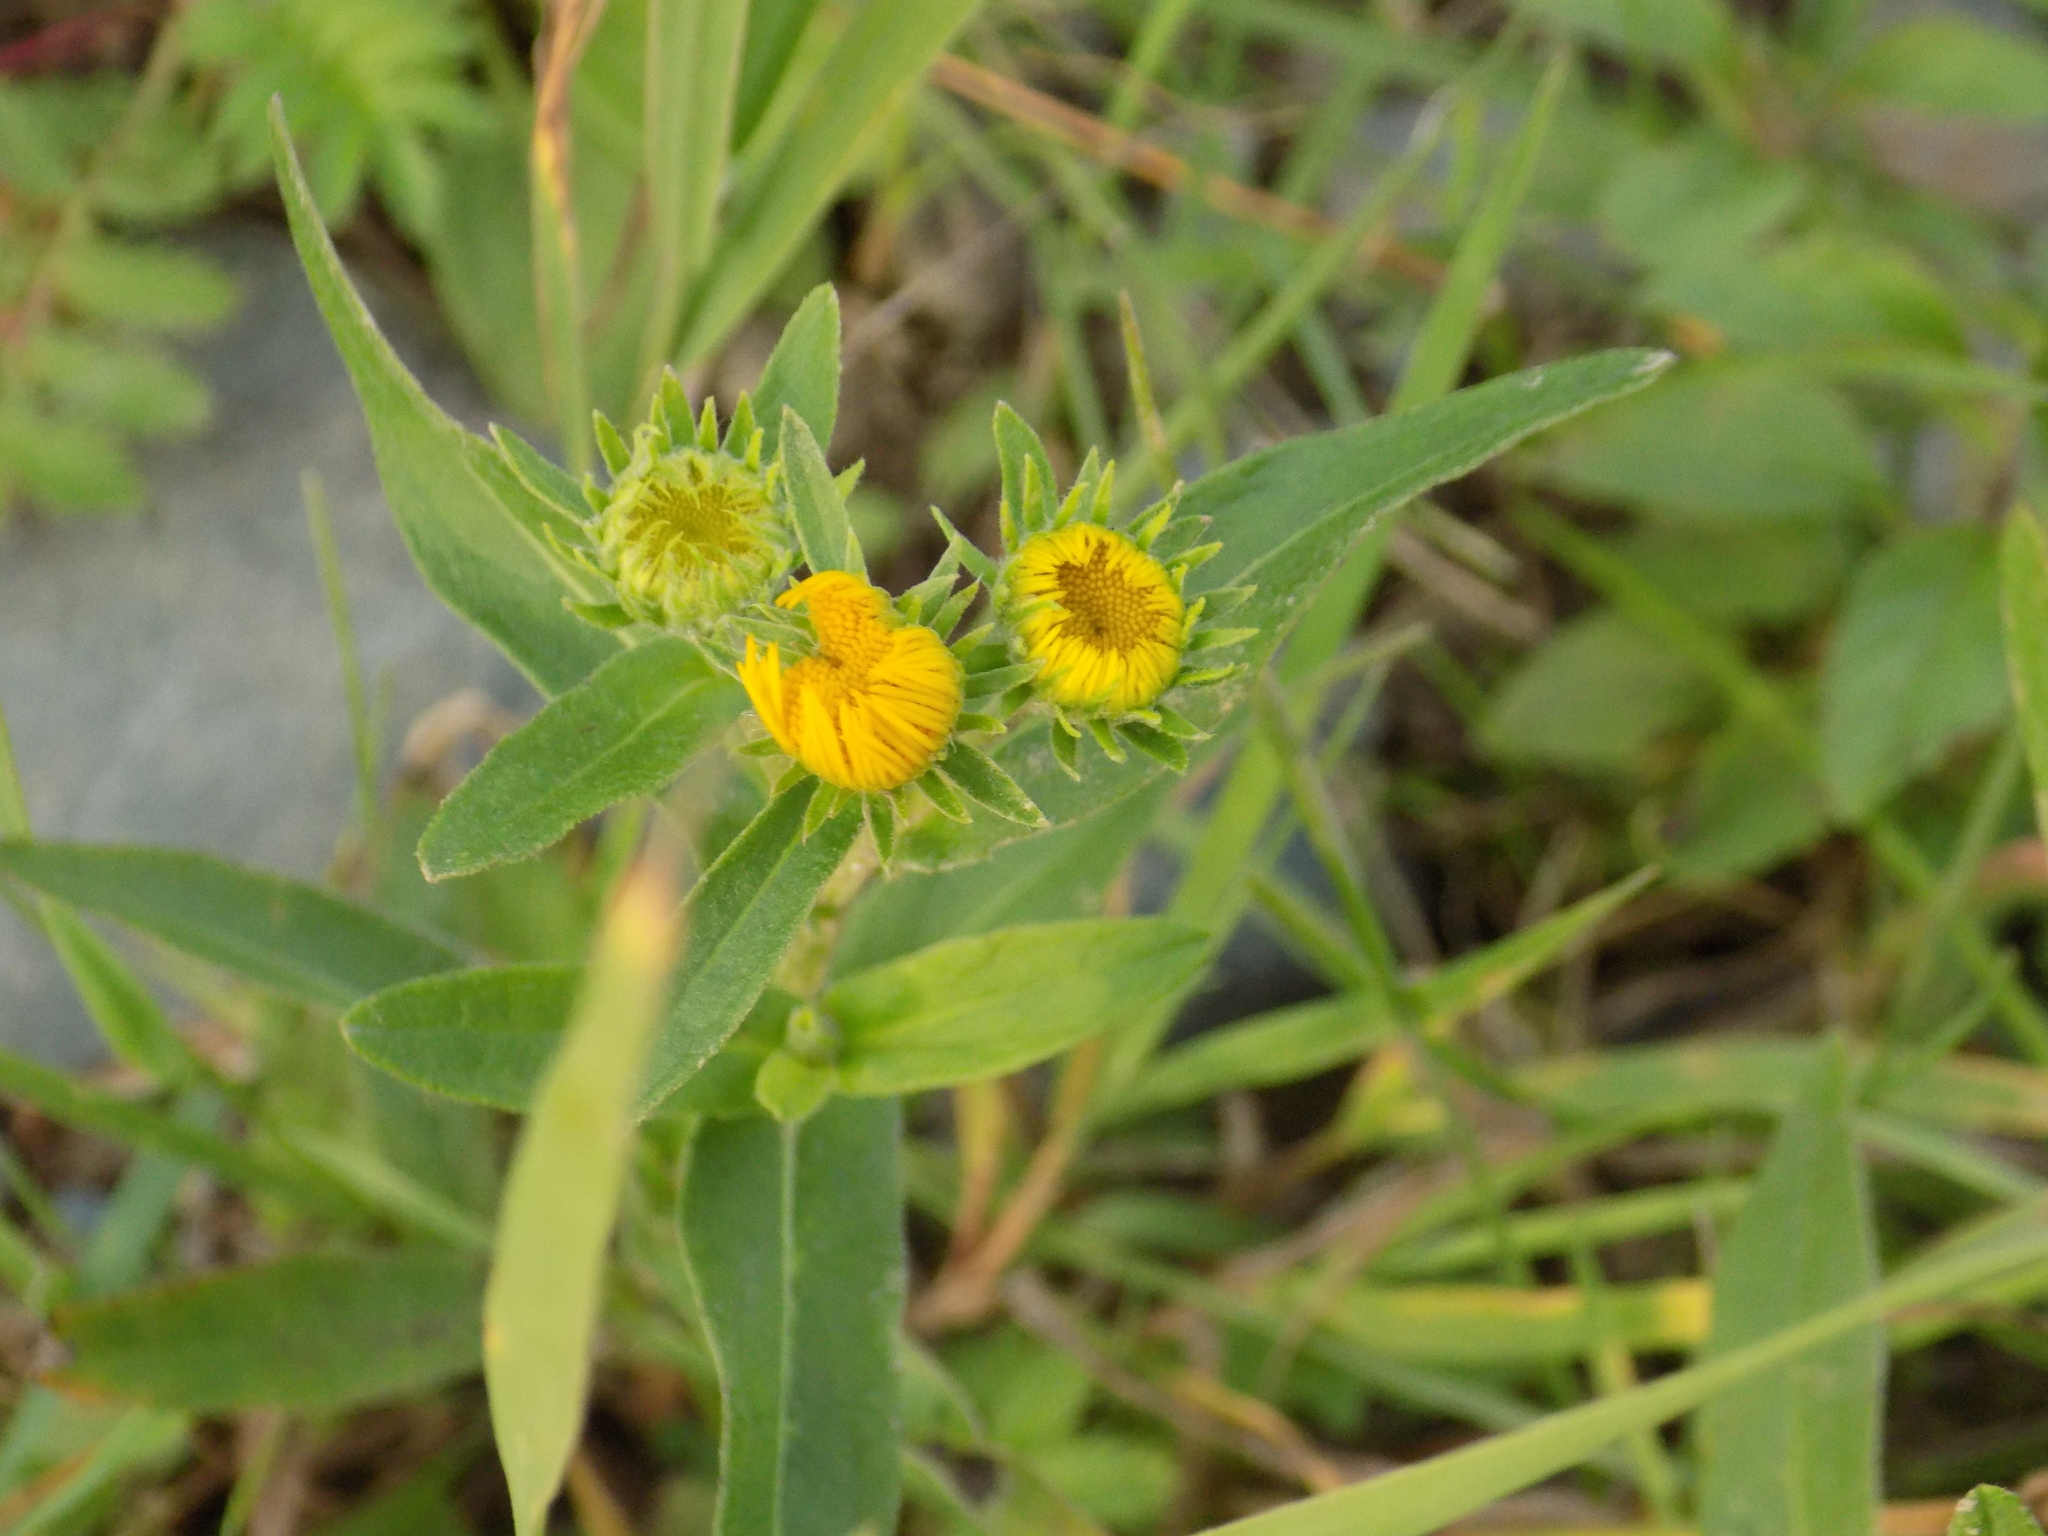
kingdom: Plantae
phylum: Tracheophyta
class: Magnoliopsida
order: Asterales
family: Asteraceae
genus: Pentanema
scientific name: Pentanema britannicum
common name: British elecampane
